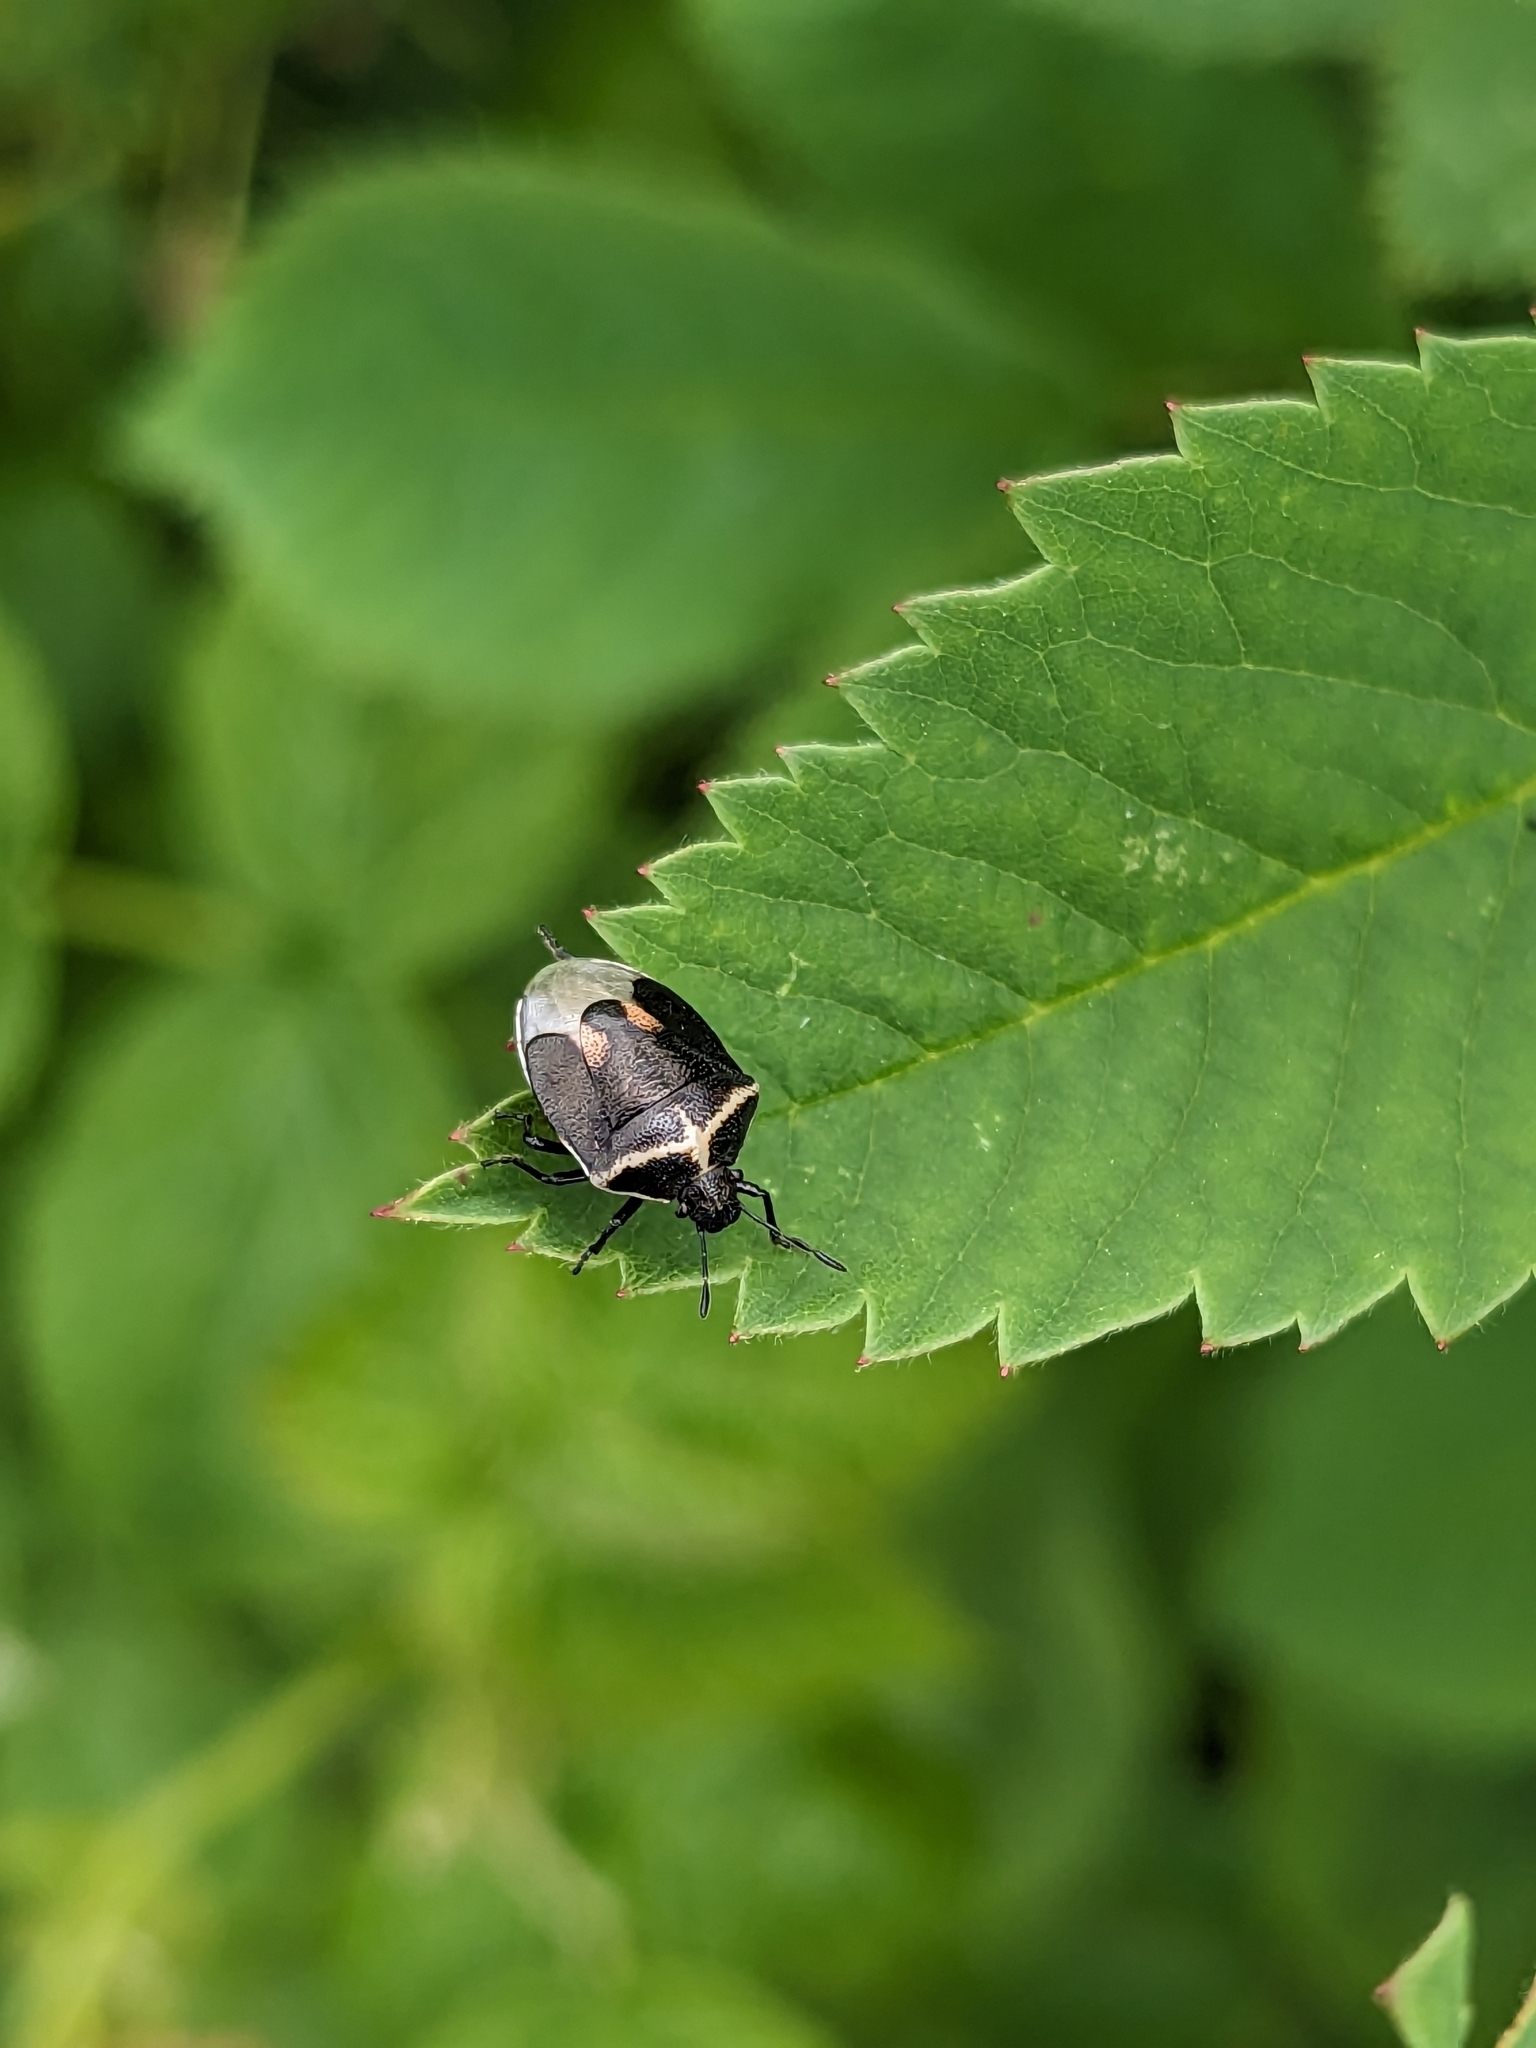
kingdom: Animalia
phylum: Arthropoda
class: Insecta
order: Hemiptera
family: Pentatomidae
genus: Cosmopepla
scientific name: Cosmopepla lintneriana
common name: Twice-stabbed stink bug
